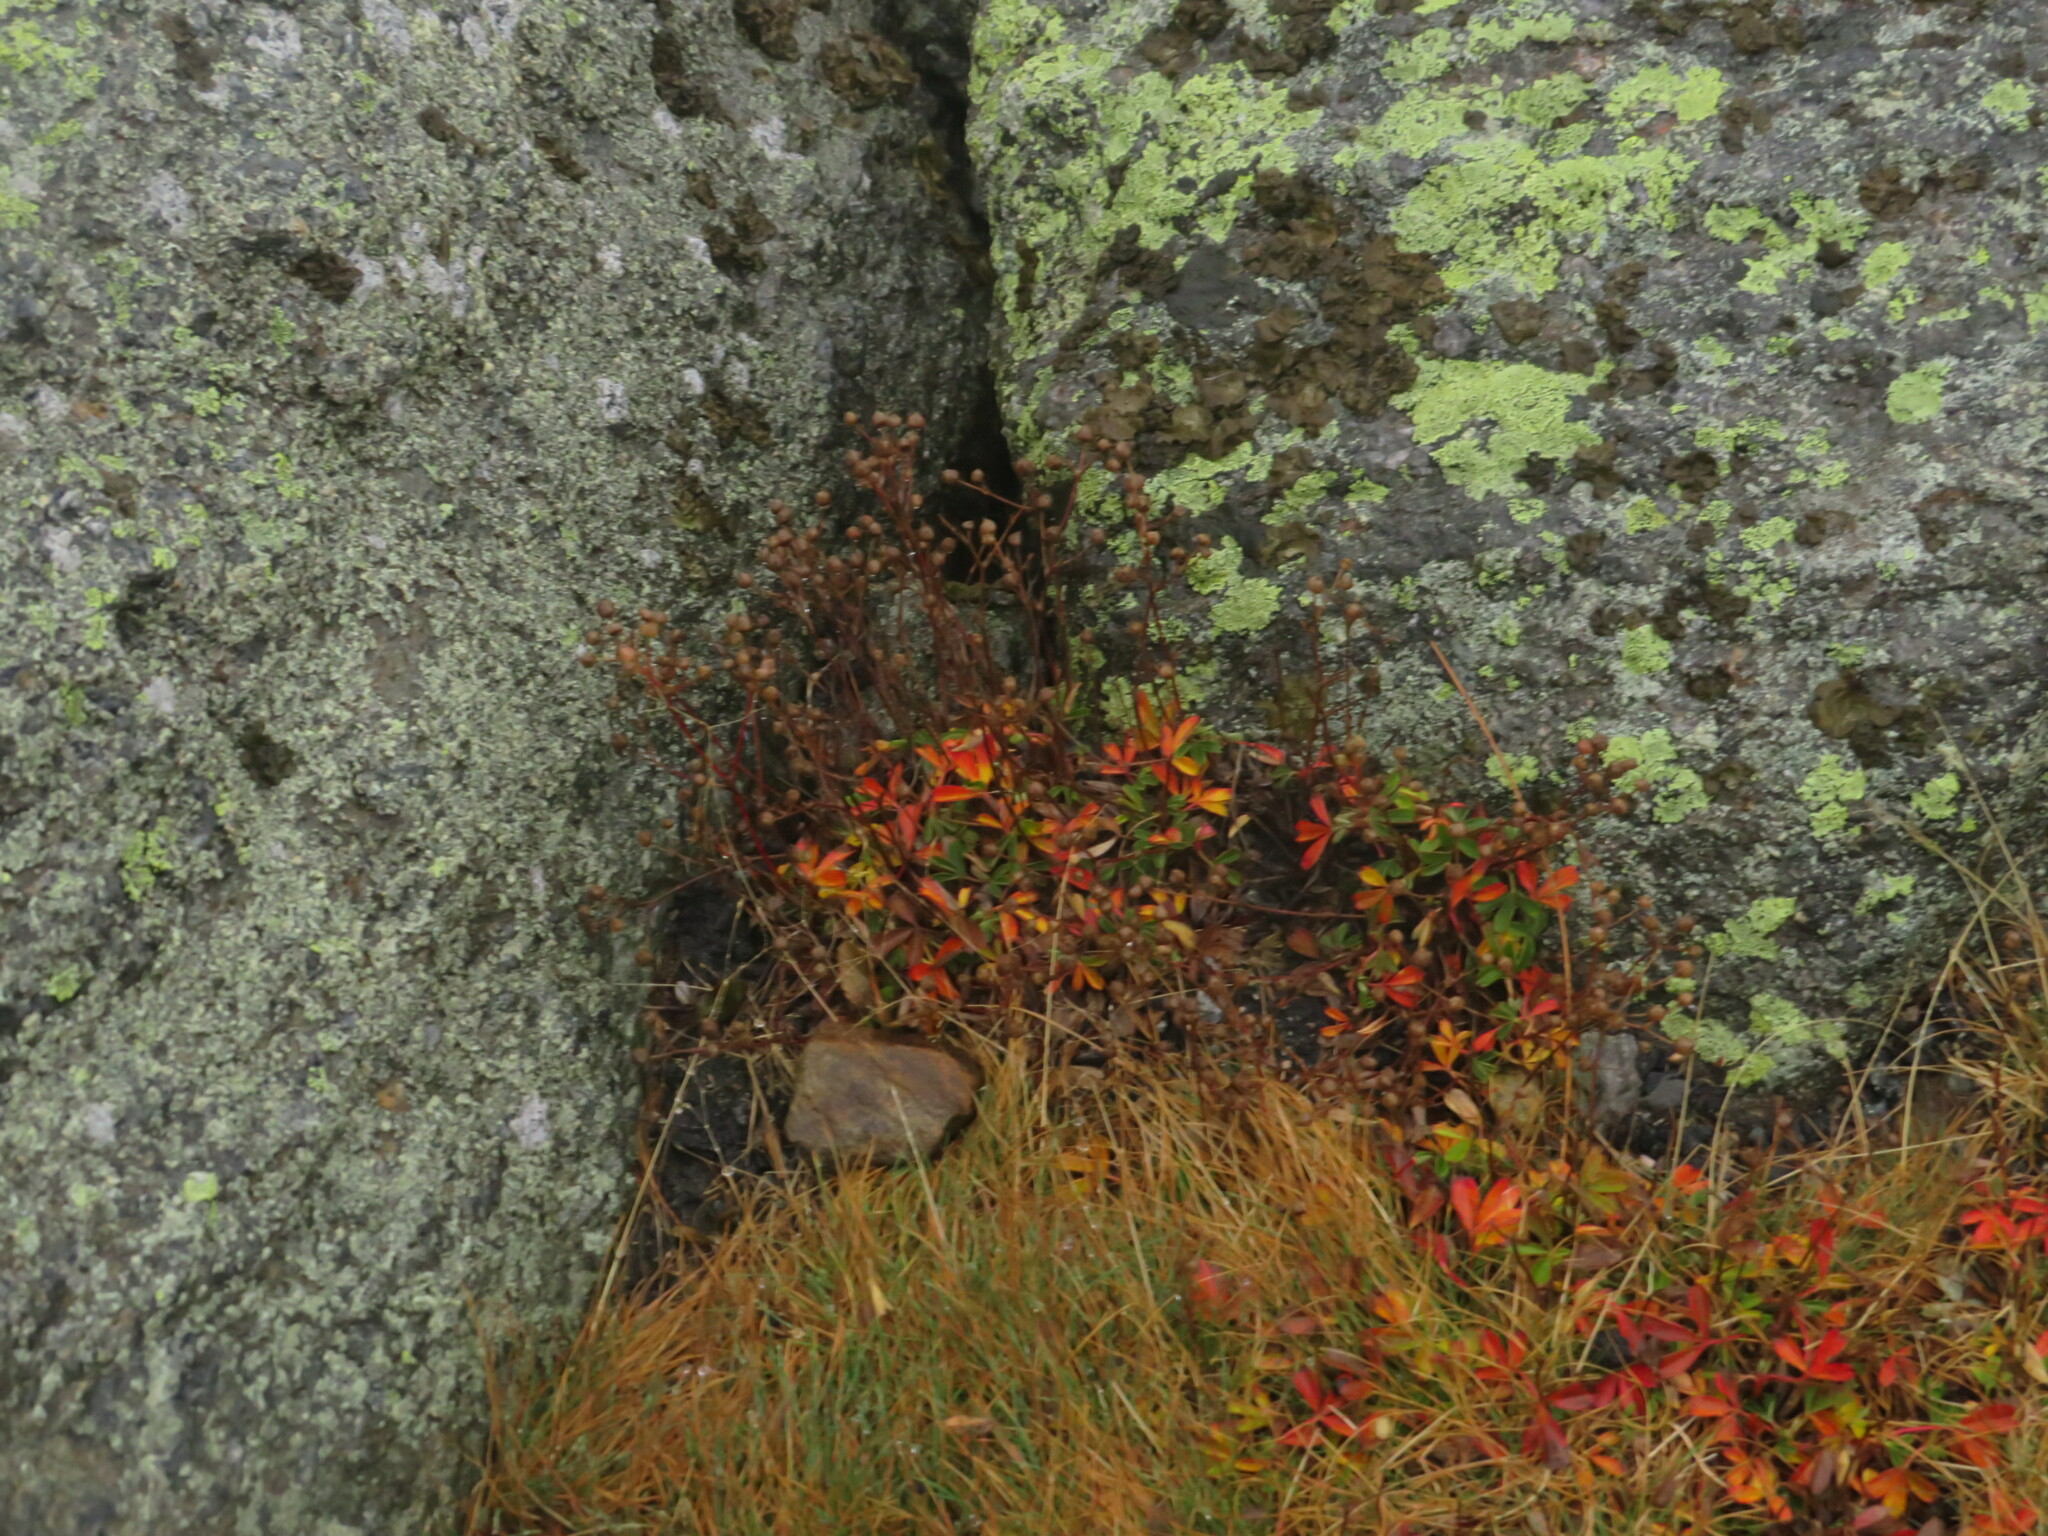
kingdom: Plantae
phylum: Tracheophyta
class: Magnoliopsida
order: Rosales
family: Rosaceae
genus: Sibbaldia
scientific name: Sibbaldia tridentata
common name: Three-toothed cinquefoil
